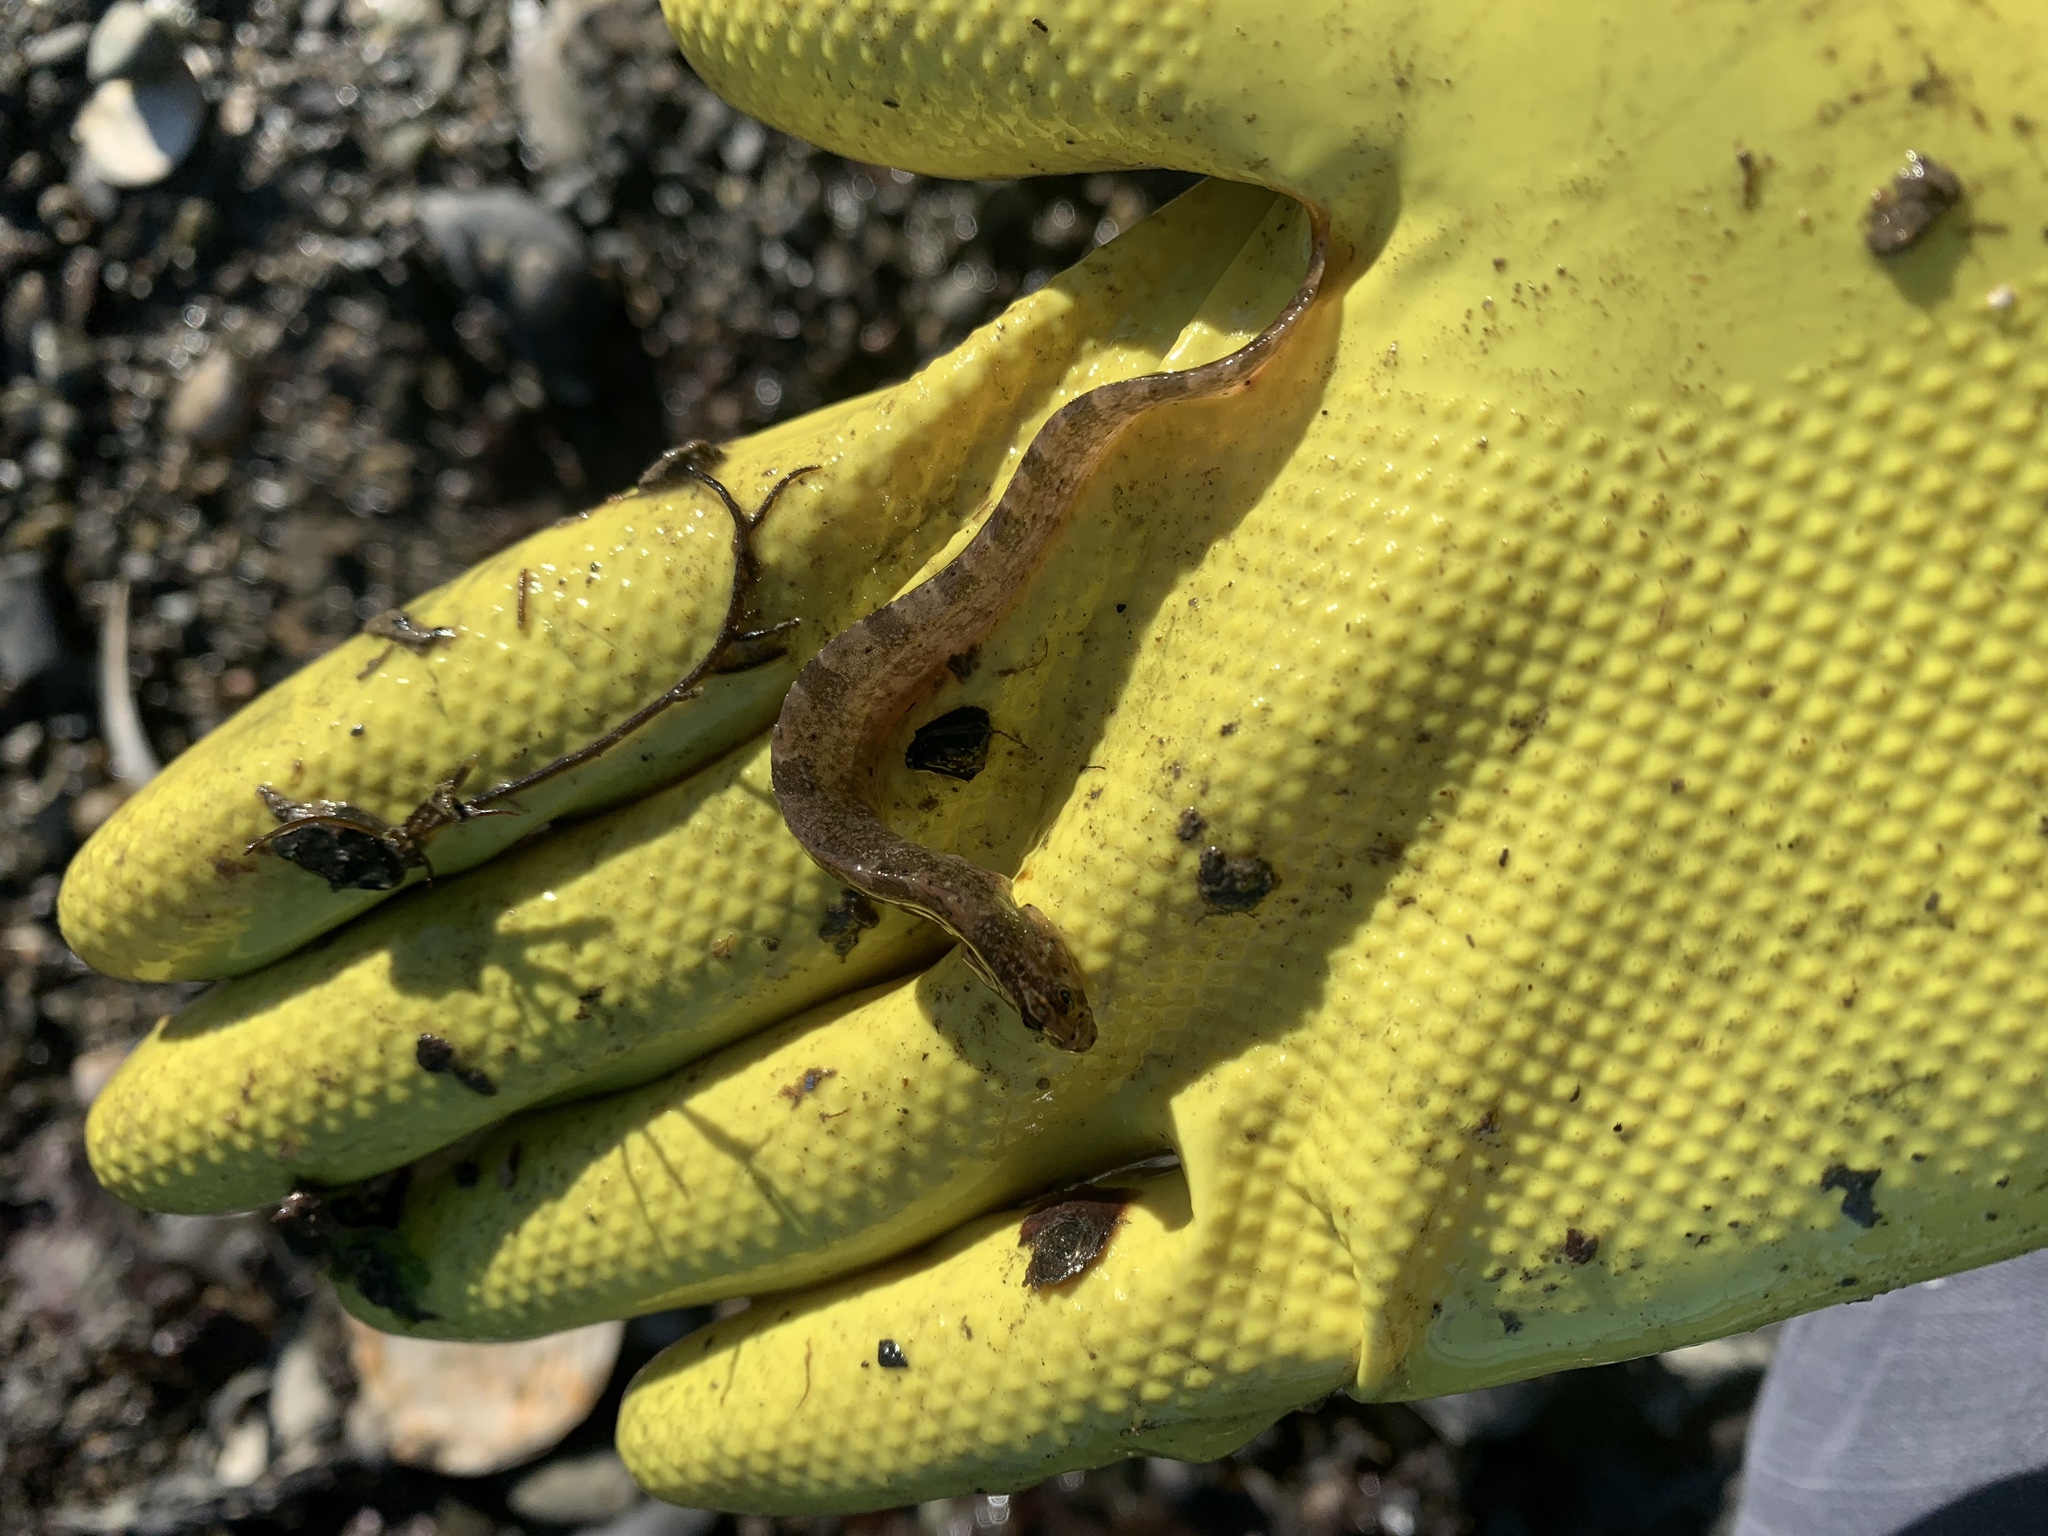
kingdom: Animalia
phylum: Chordata
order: Perciformes
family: Pholidae
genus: Pholis
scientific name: Pholis gunnellus
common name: Butterfish
